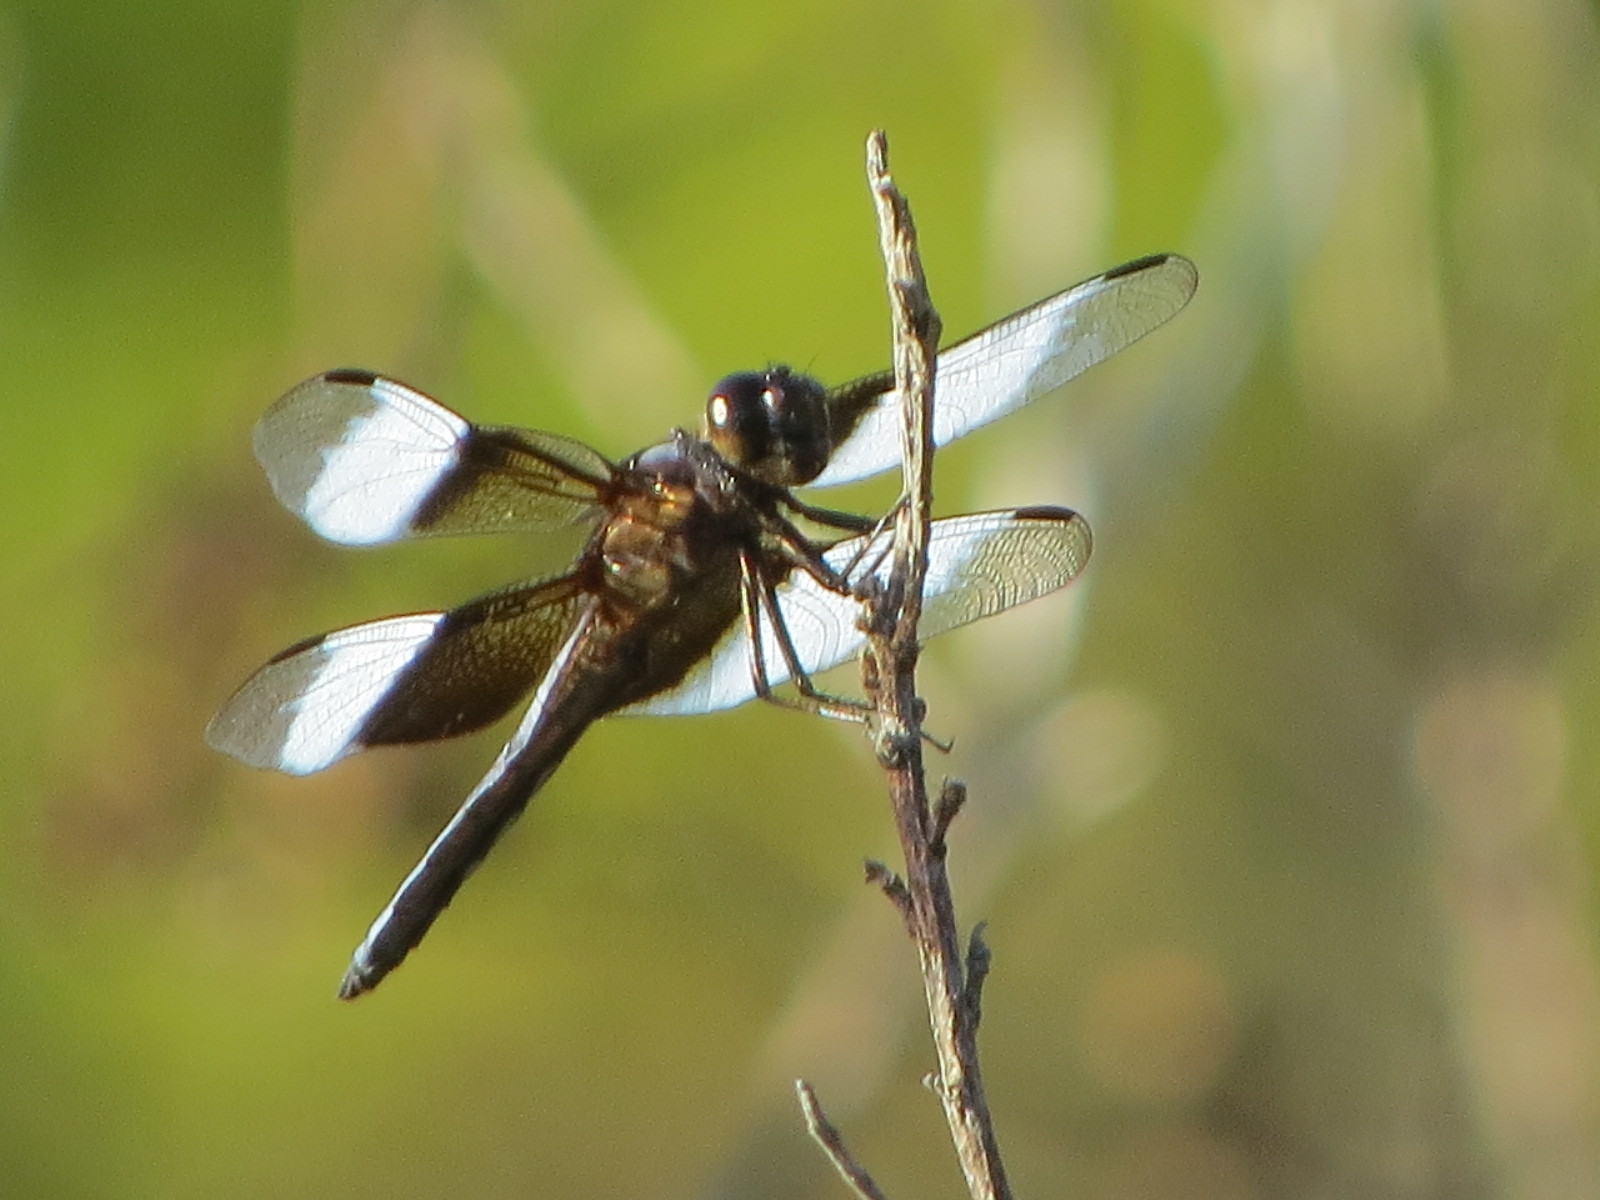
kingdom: Animalia
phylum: Arthropoda
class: Insecta
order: Odonata
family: Libellulidae
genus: Libellula
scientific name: Libellula luctuosa
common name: Widow skimmer
